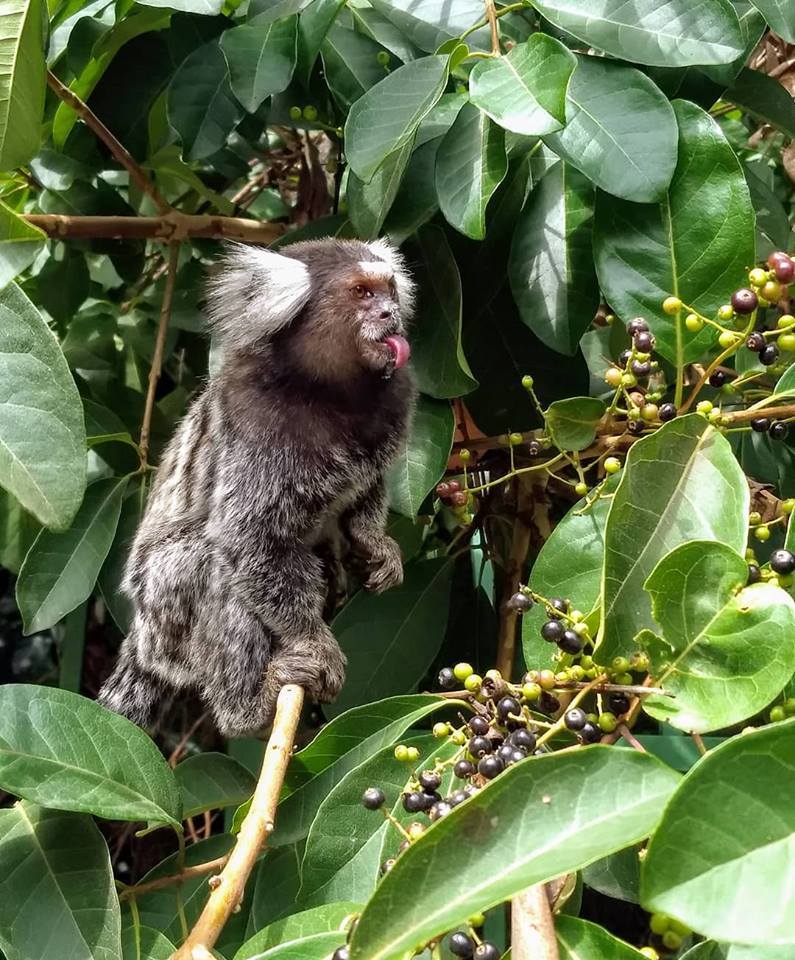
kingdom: Animalia
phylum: Chordata
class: Mammalia
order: Primates
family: Callitrichidae
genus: Callithrix
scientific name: Callithrix jacchus
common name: Common marmoset
